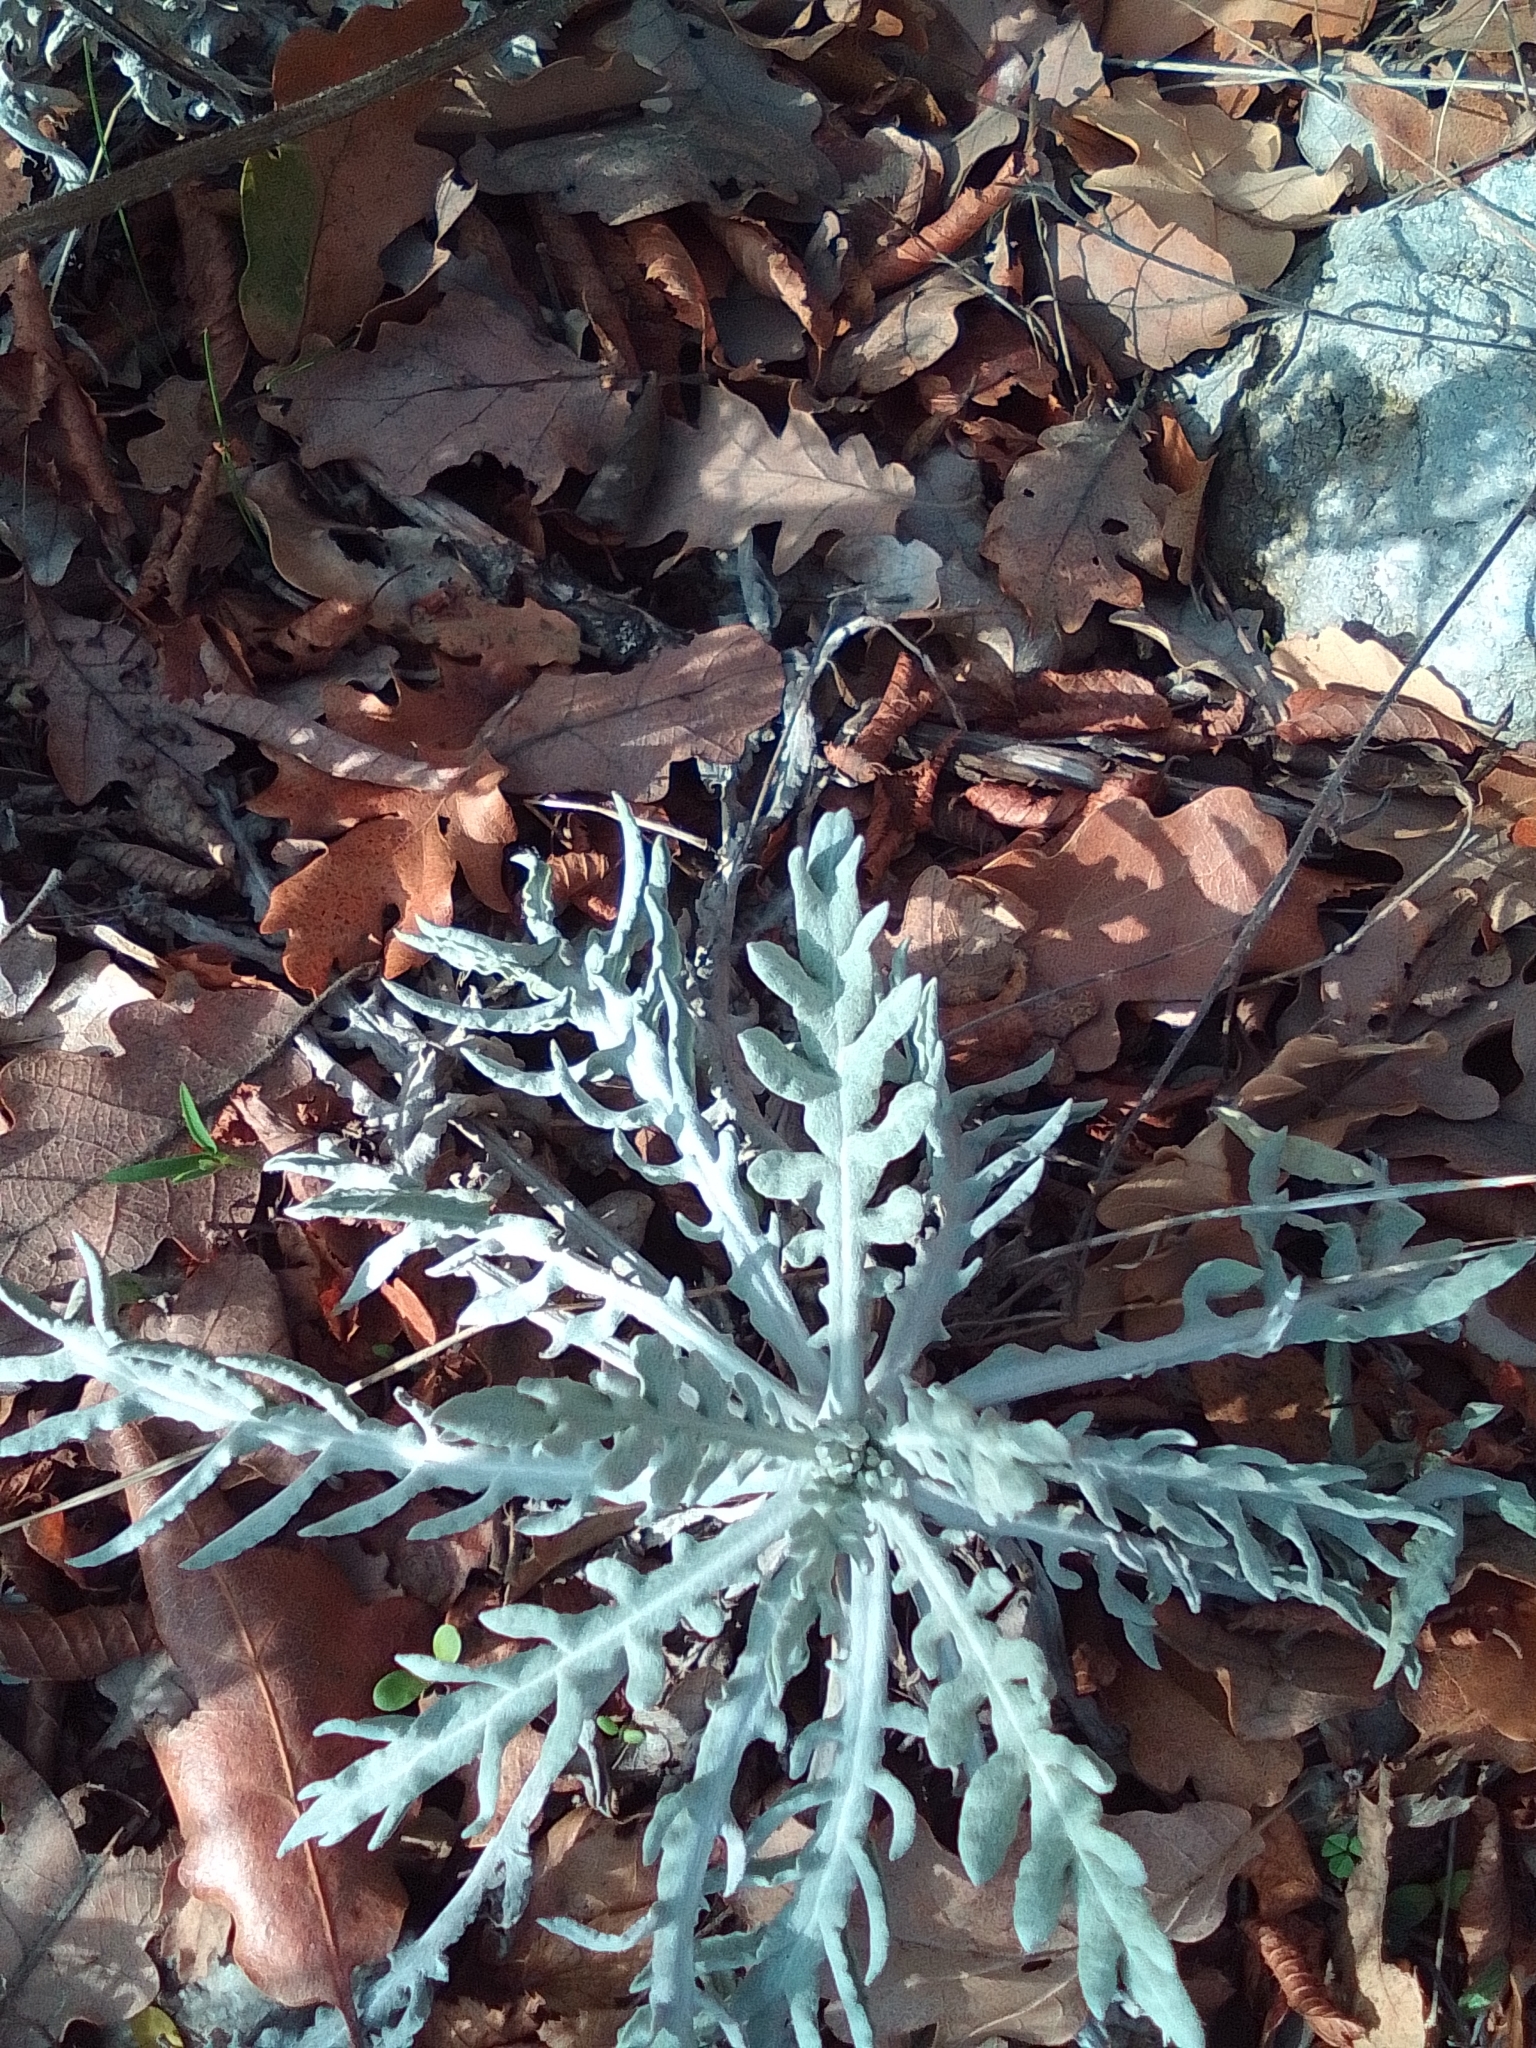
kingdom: Plantae
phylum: Tracheophyta
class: Magnoliopsida
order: Asterales
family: Asteraceae
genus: Jurinea
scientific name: Jurinea roegneri
